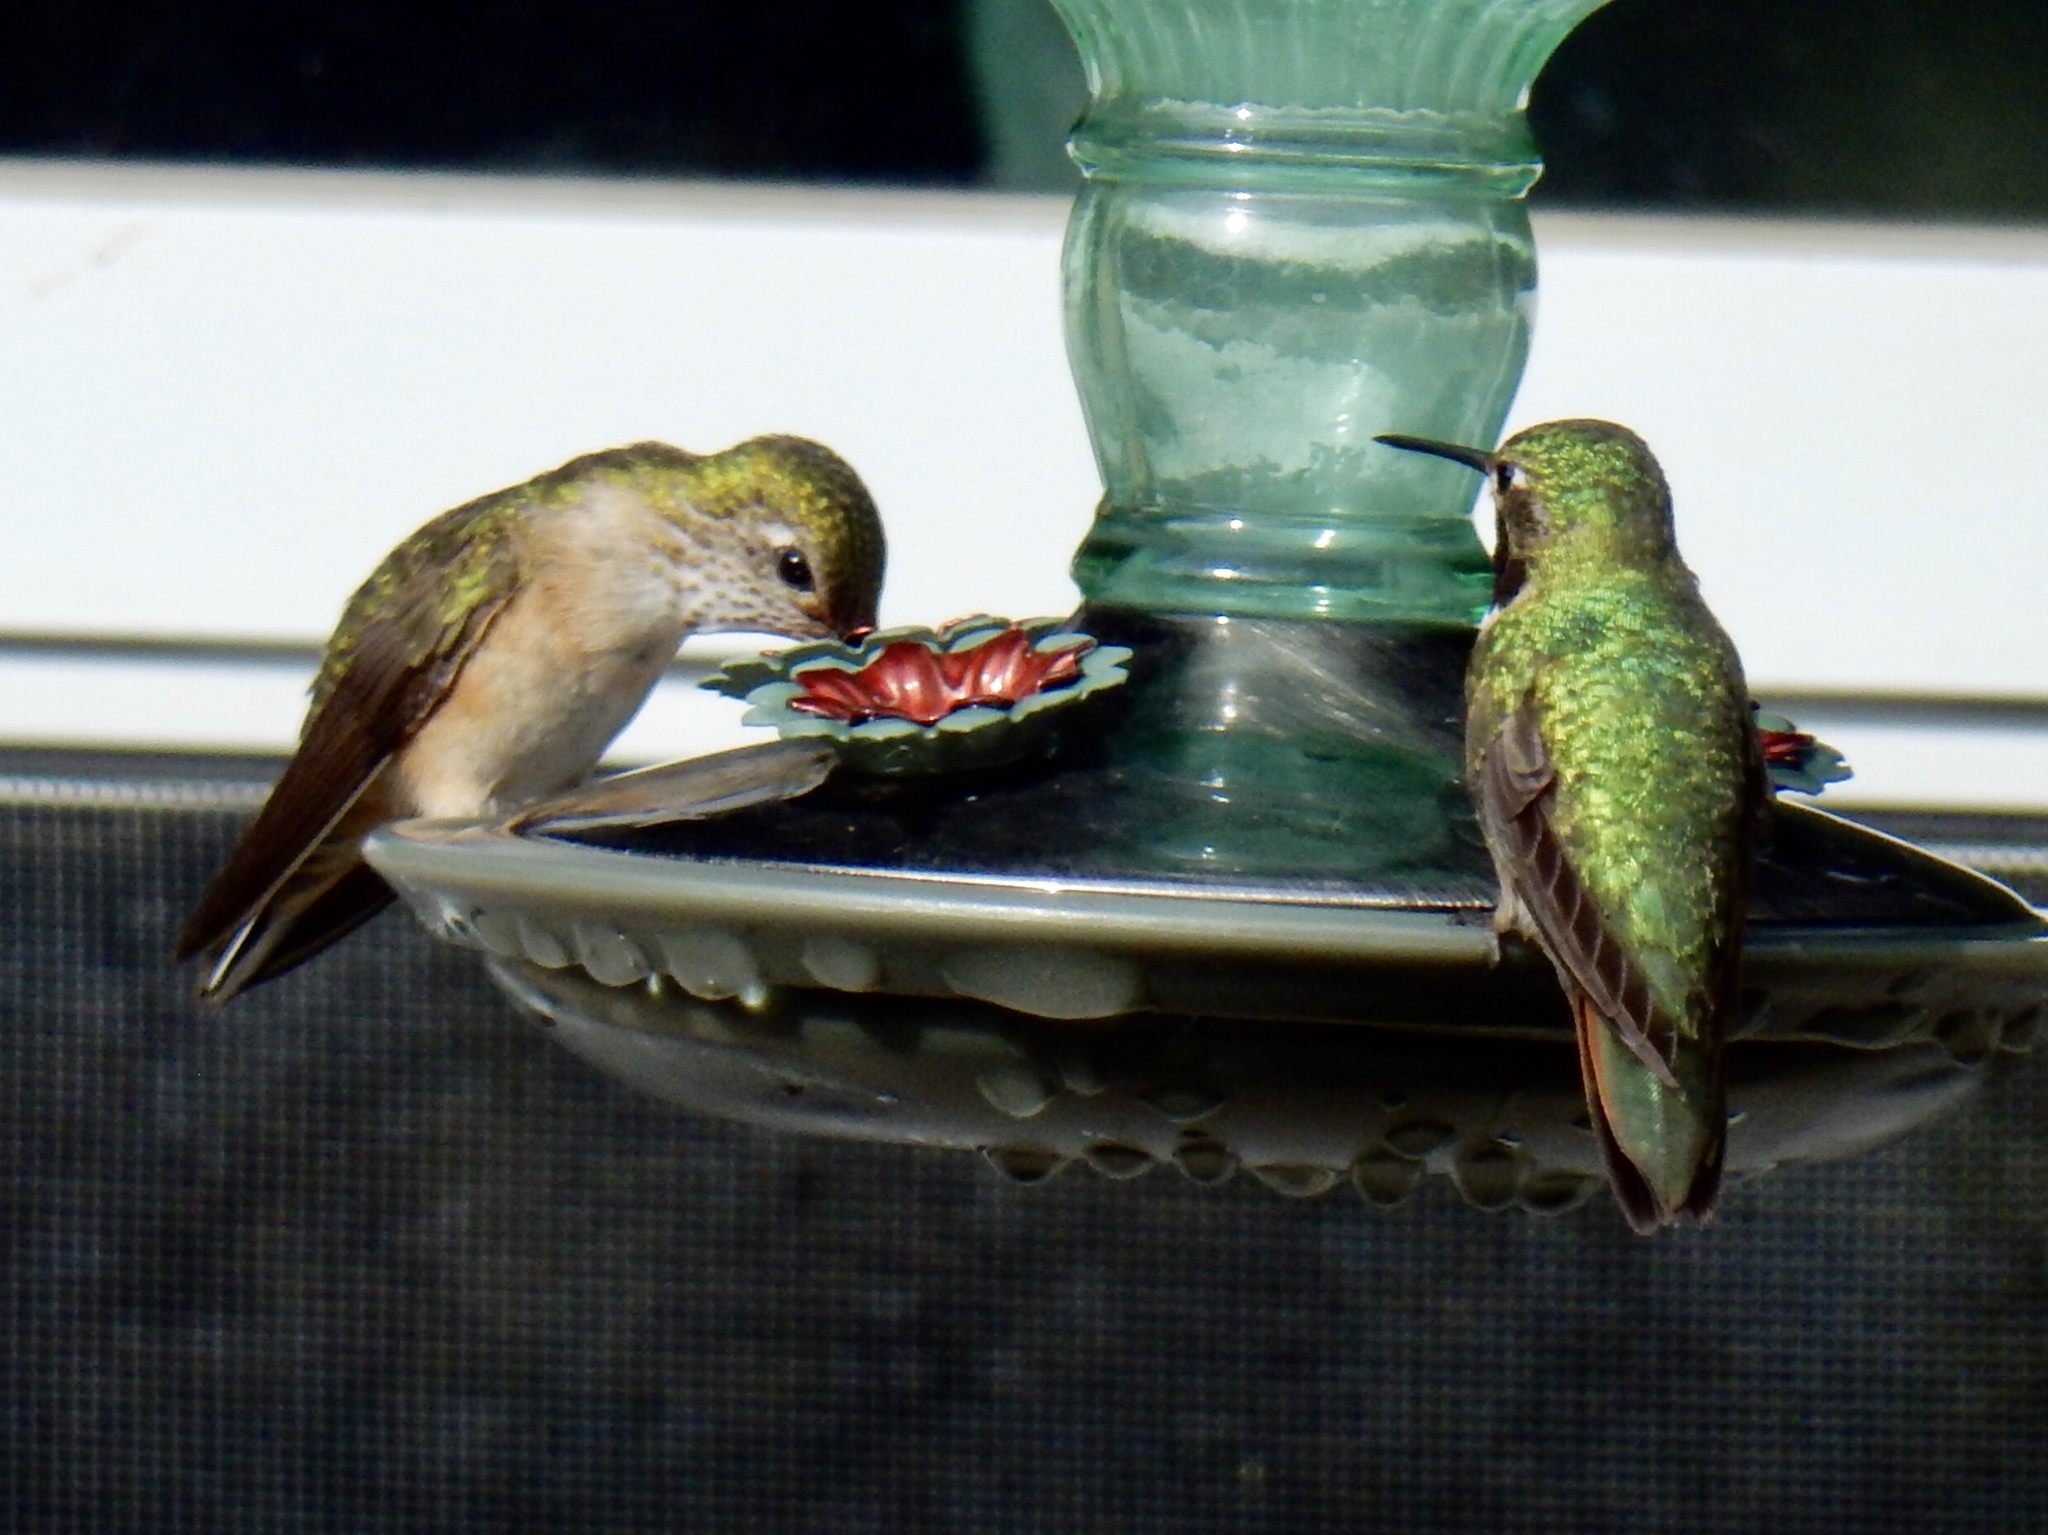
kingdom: Animalia
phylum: Chordata
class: Aves
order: Apodiformes
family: Trochilidae
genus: Selasphorus
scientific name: Selasphorus platycercus
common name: Broad-tailed hummingbird
